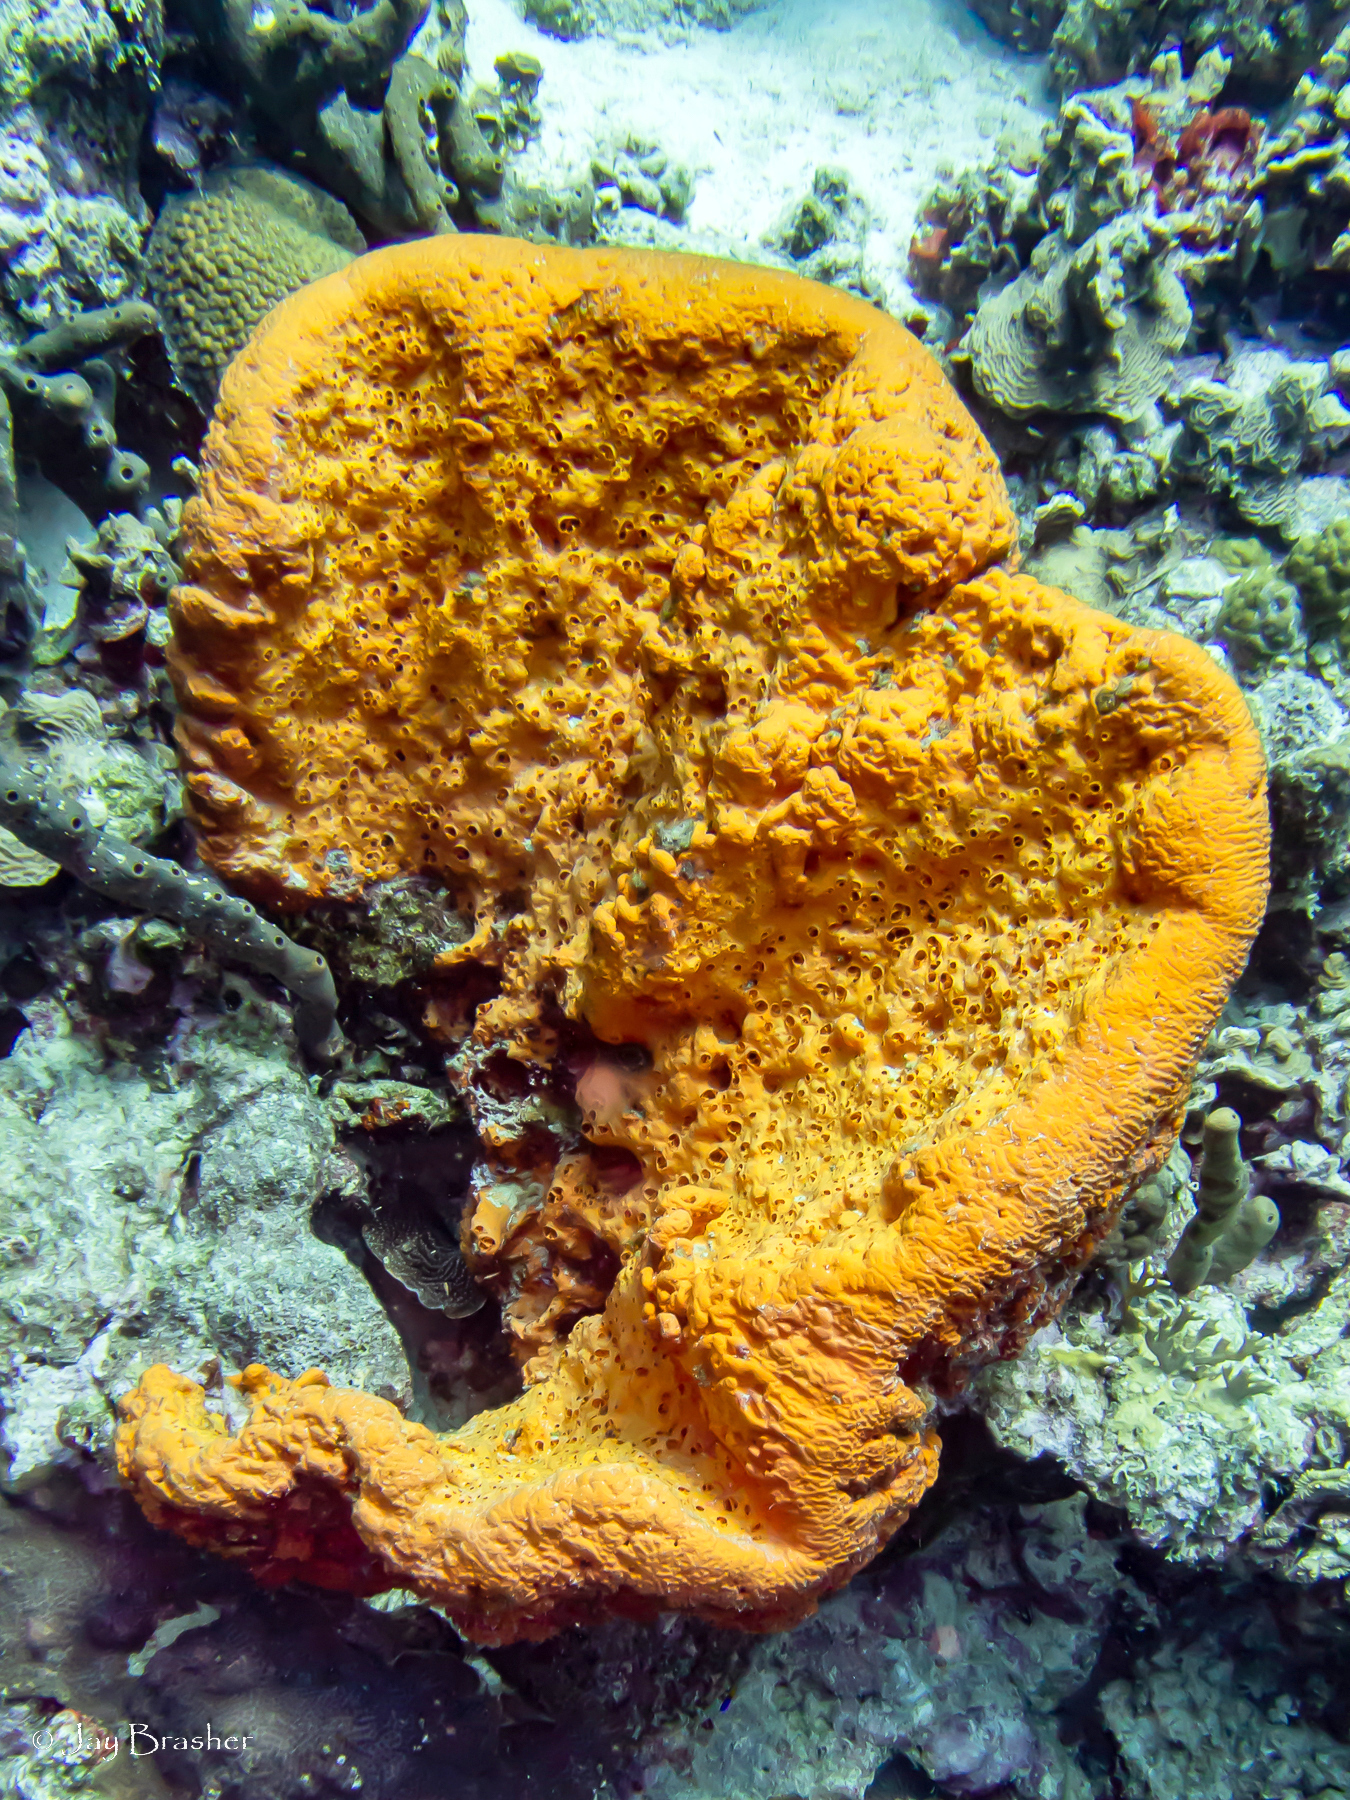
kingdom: Animalia
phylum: Porifera
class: Demospongiae
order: Agelasida
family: Agelasidae
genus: Agelas
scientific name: Agelas clathrodes
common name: Orange elephant ear sponge
